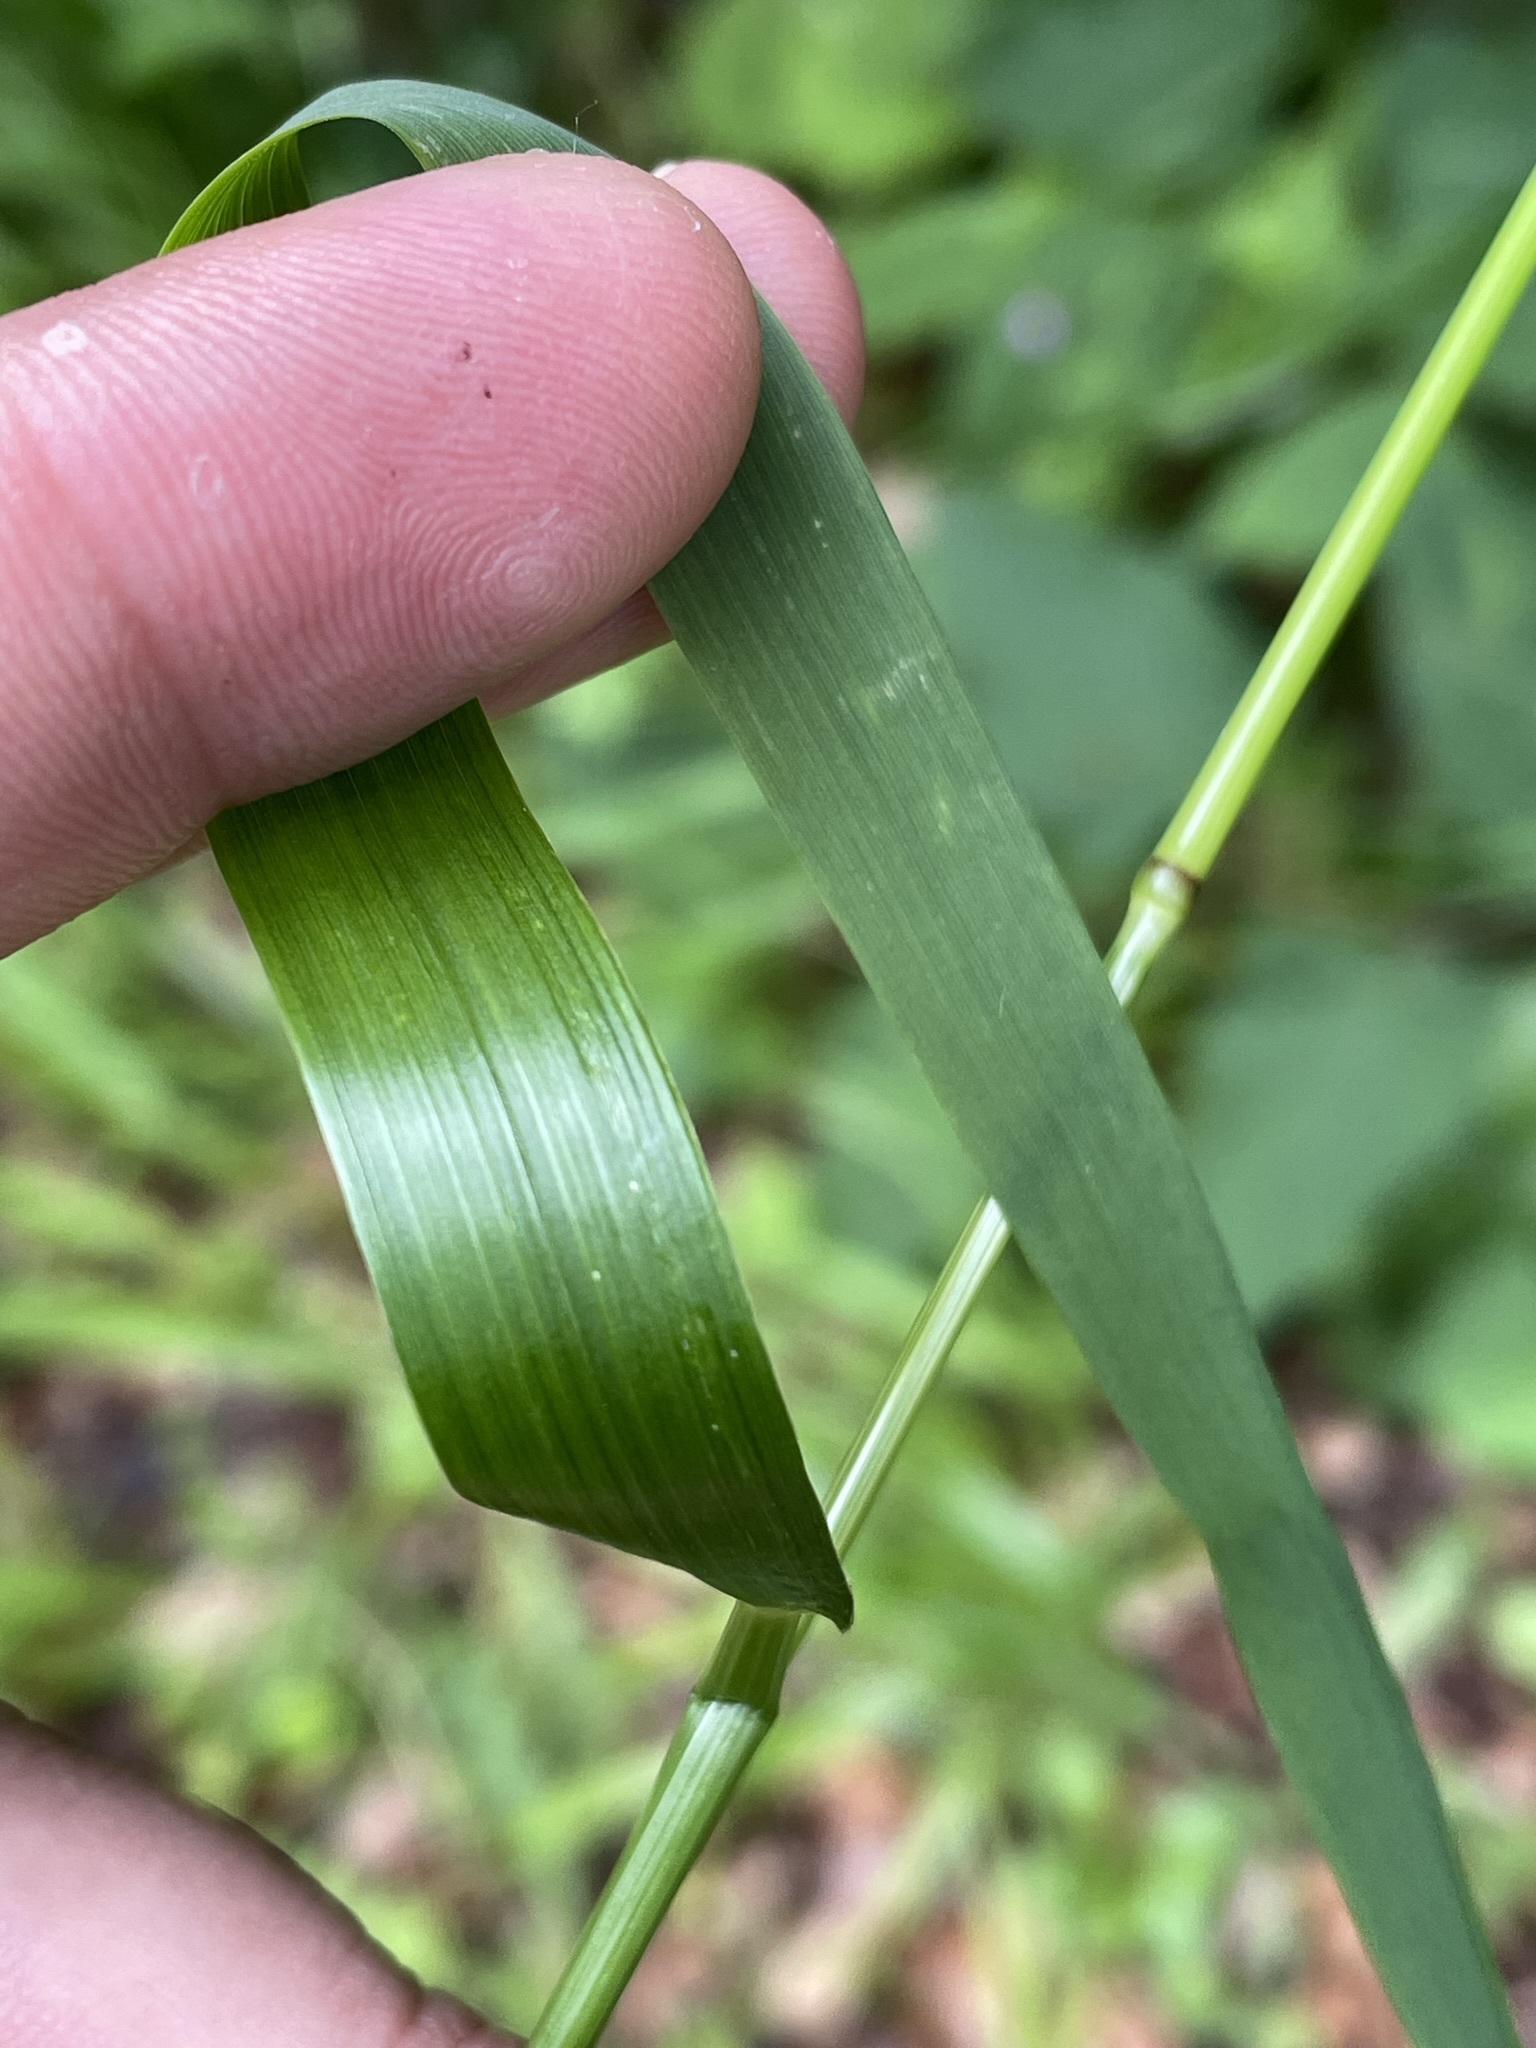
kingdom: Plantae
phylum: Tracheophyta
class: Liliopsida
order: Poales
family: Poaceae
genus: Lolium
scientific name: Lolium giganteum
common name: Giant fescue
